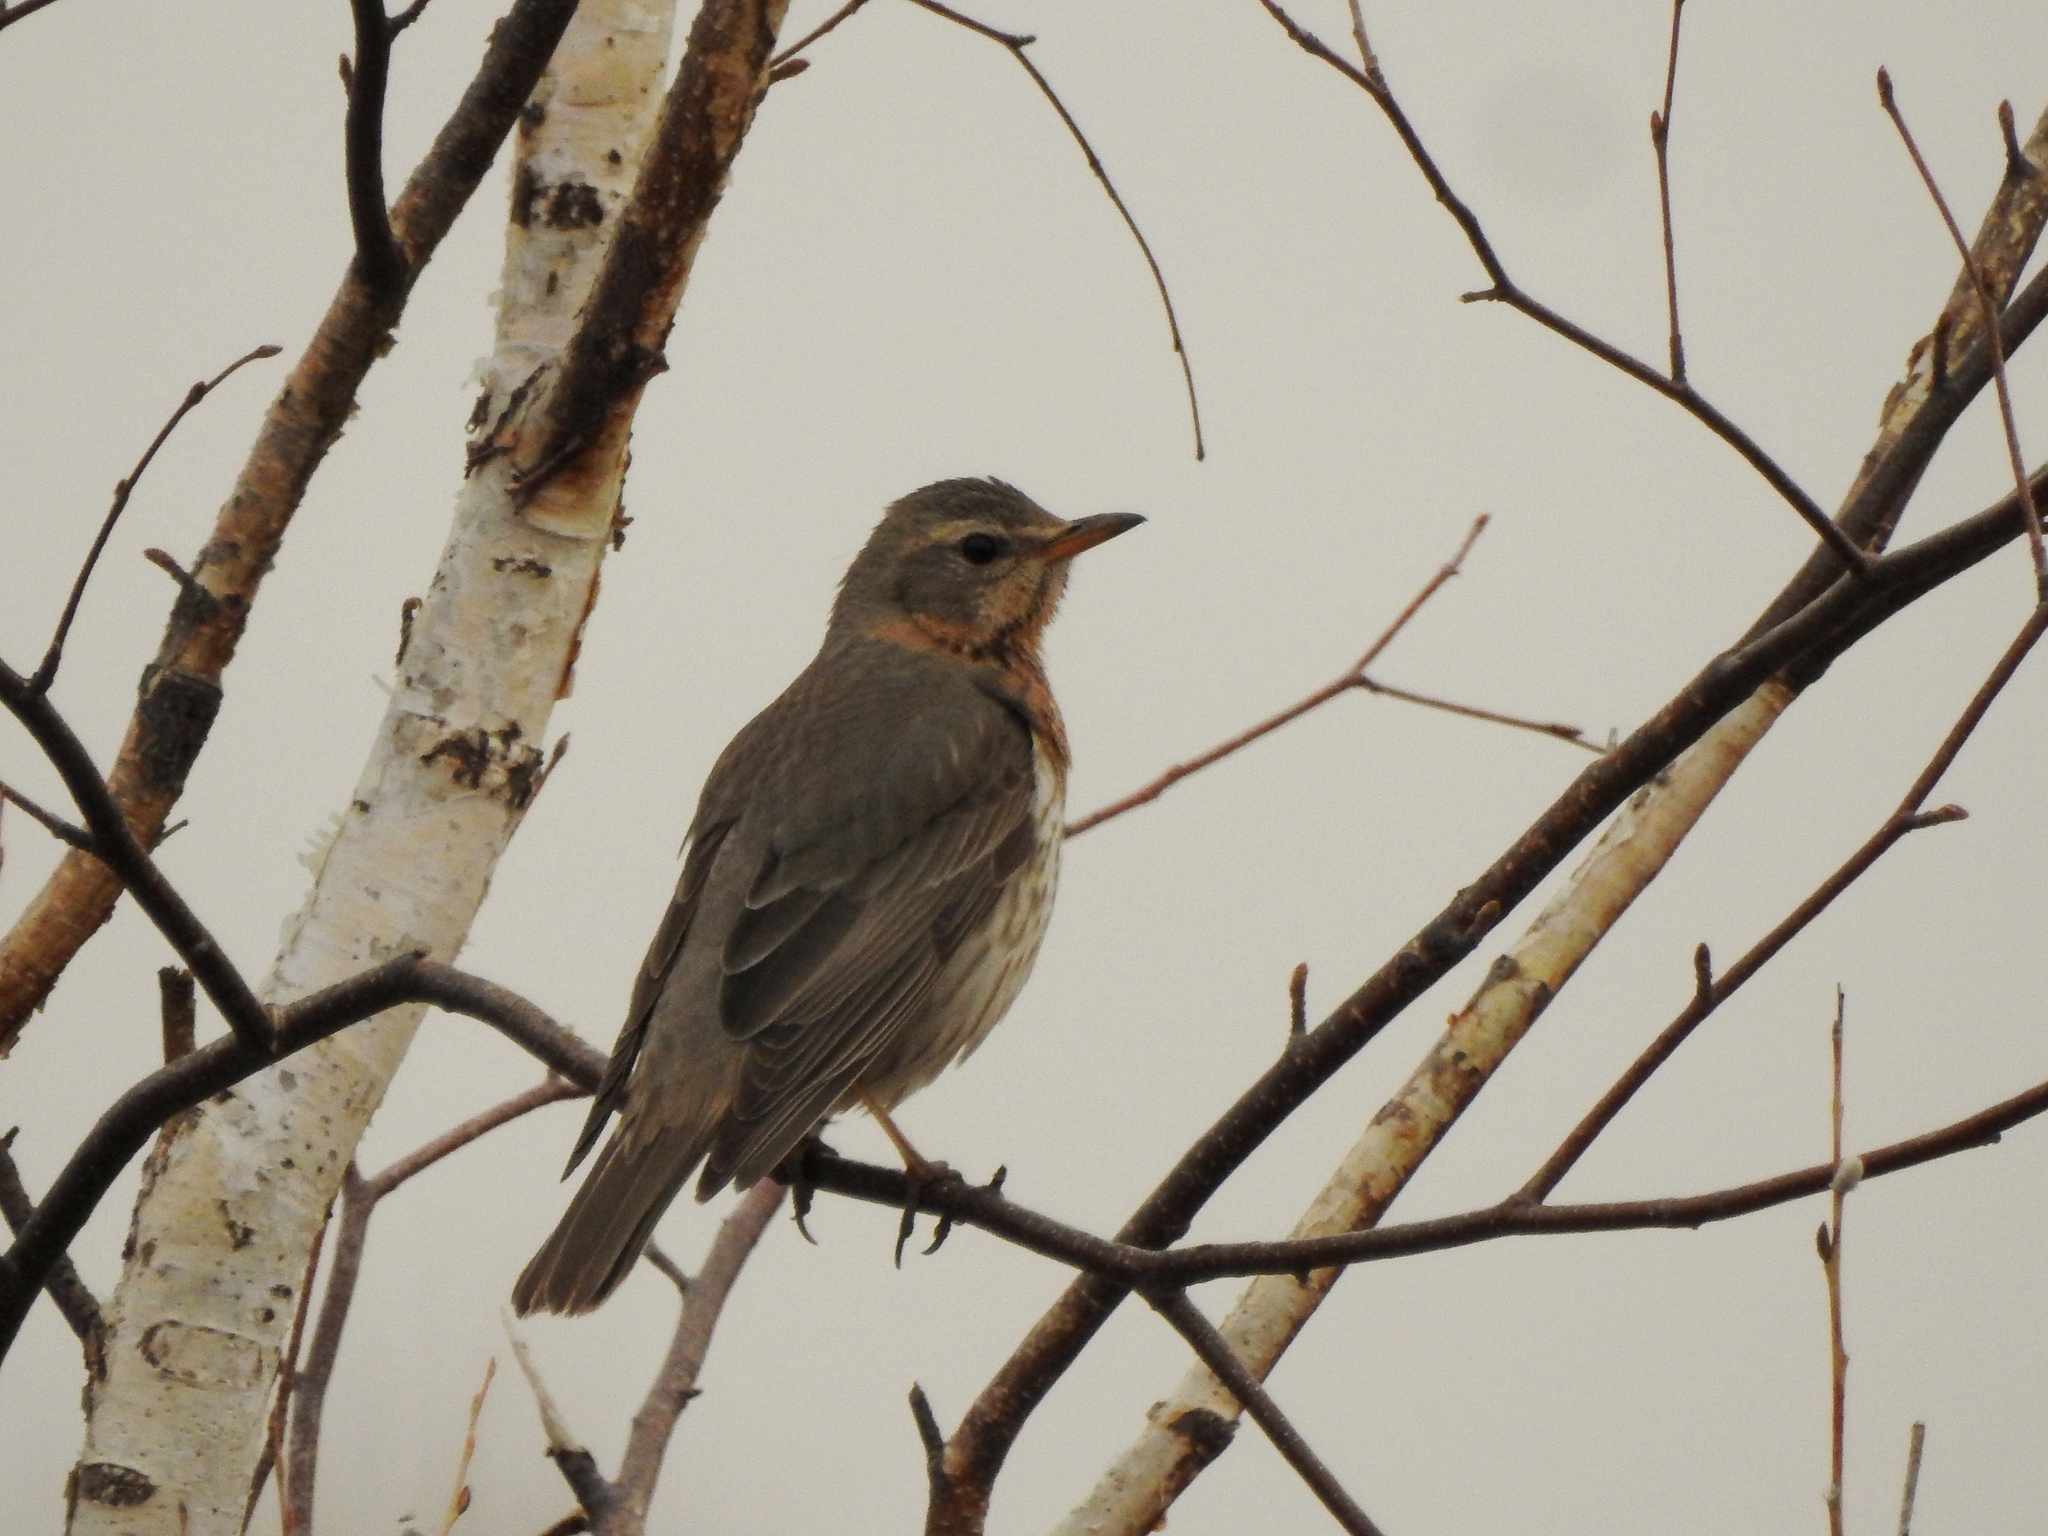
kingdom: Animalia
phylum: Chordata
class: Aves
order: Passeriformes
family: Turdidae
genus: Turdus
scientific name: Turdus ruficollis
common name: Red-throated thrush
